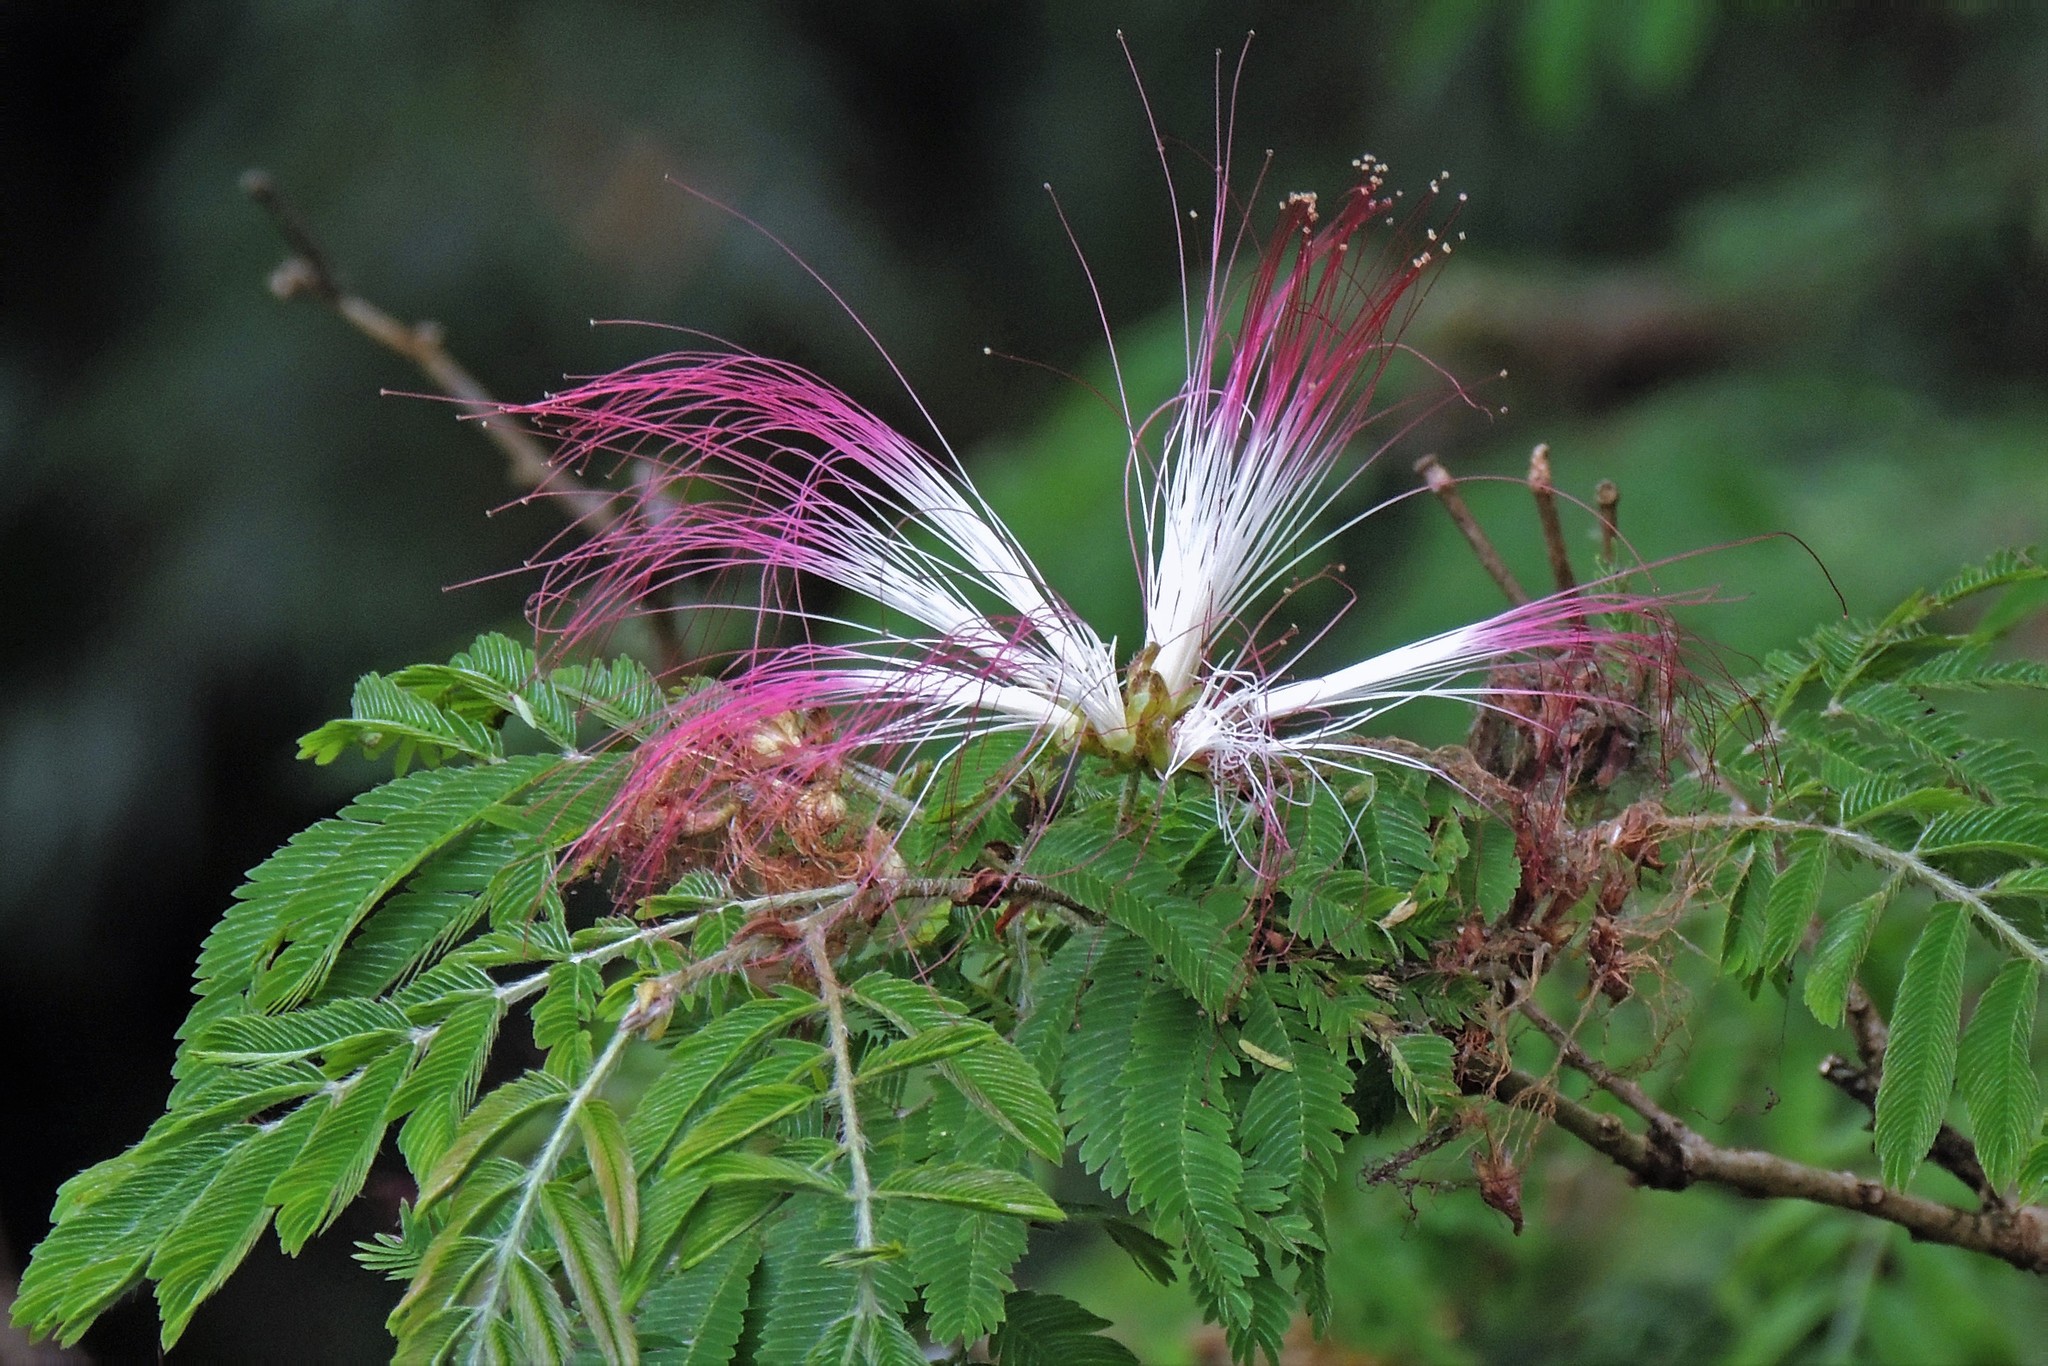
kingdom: Plantae
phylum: Tracheophyta
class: Magnoliopsida
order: Fabales
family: Fabaceae
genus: Calliandra
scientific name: Calliandra parvifolia
